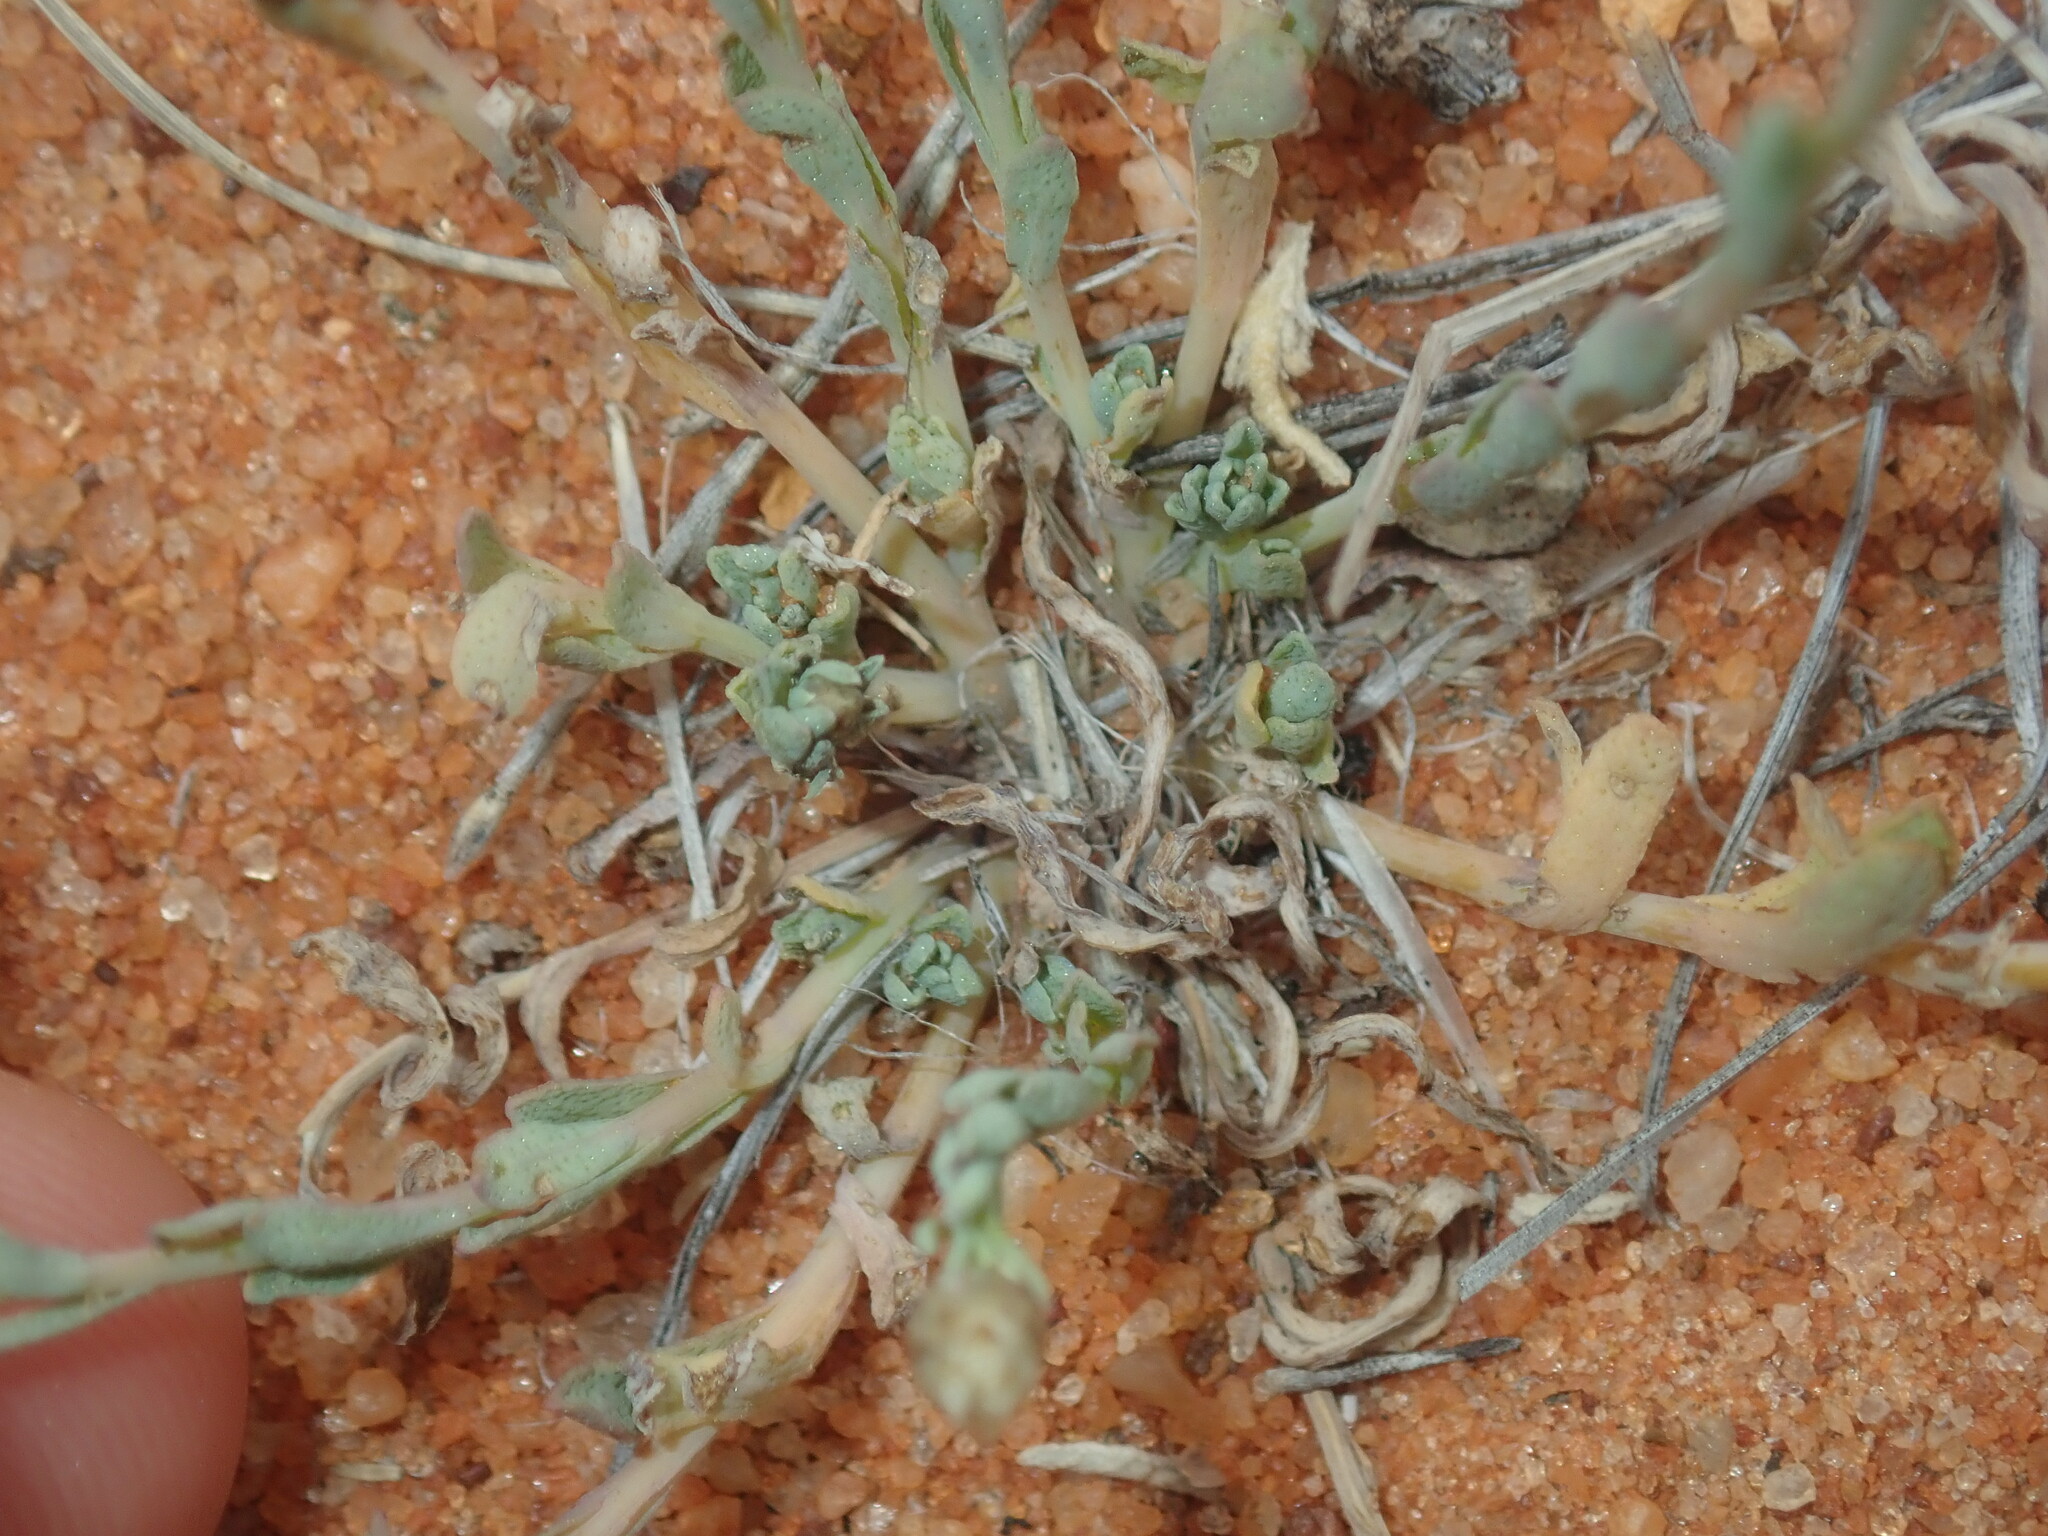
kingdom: Plantae
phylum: Tracheophyta
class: Magnoliopsida
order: Asterales
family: Asteraceae
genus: Rhodanthe
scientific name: Rhodanthe chlorocephala
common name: Rosy sunray
